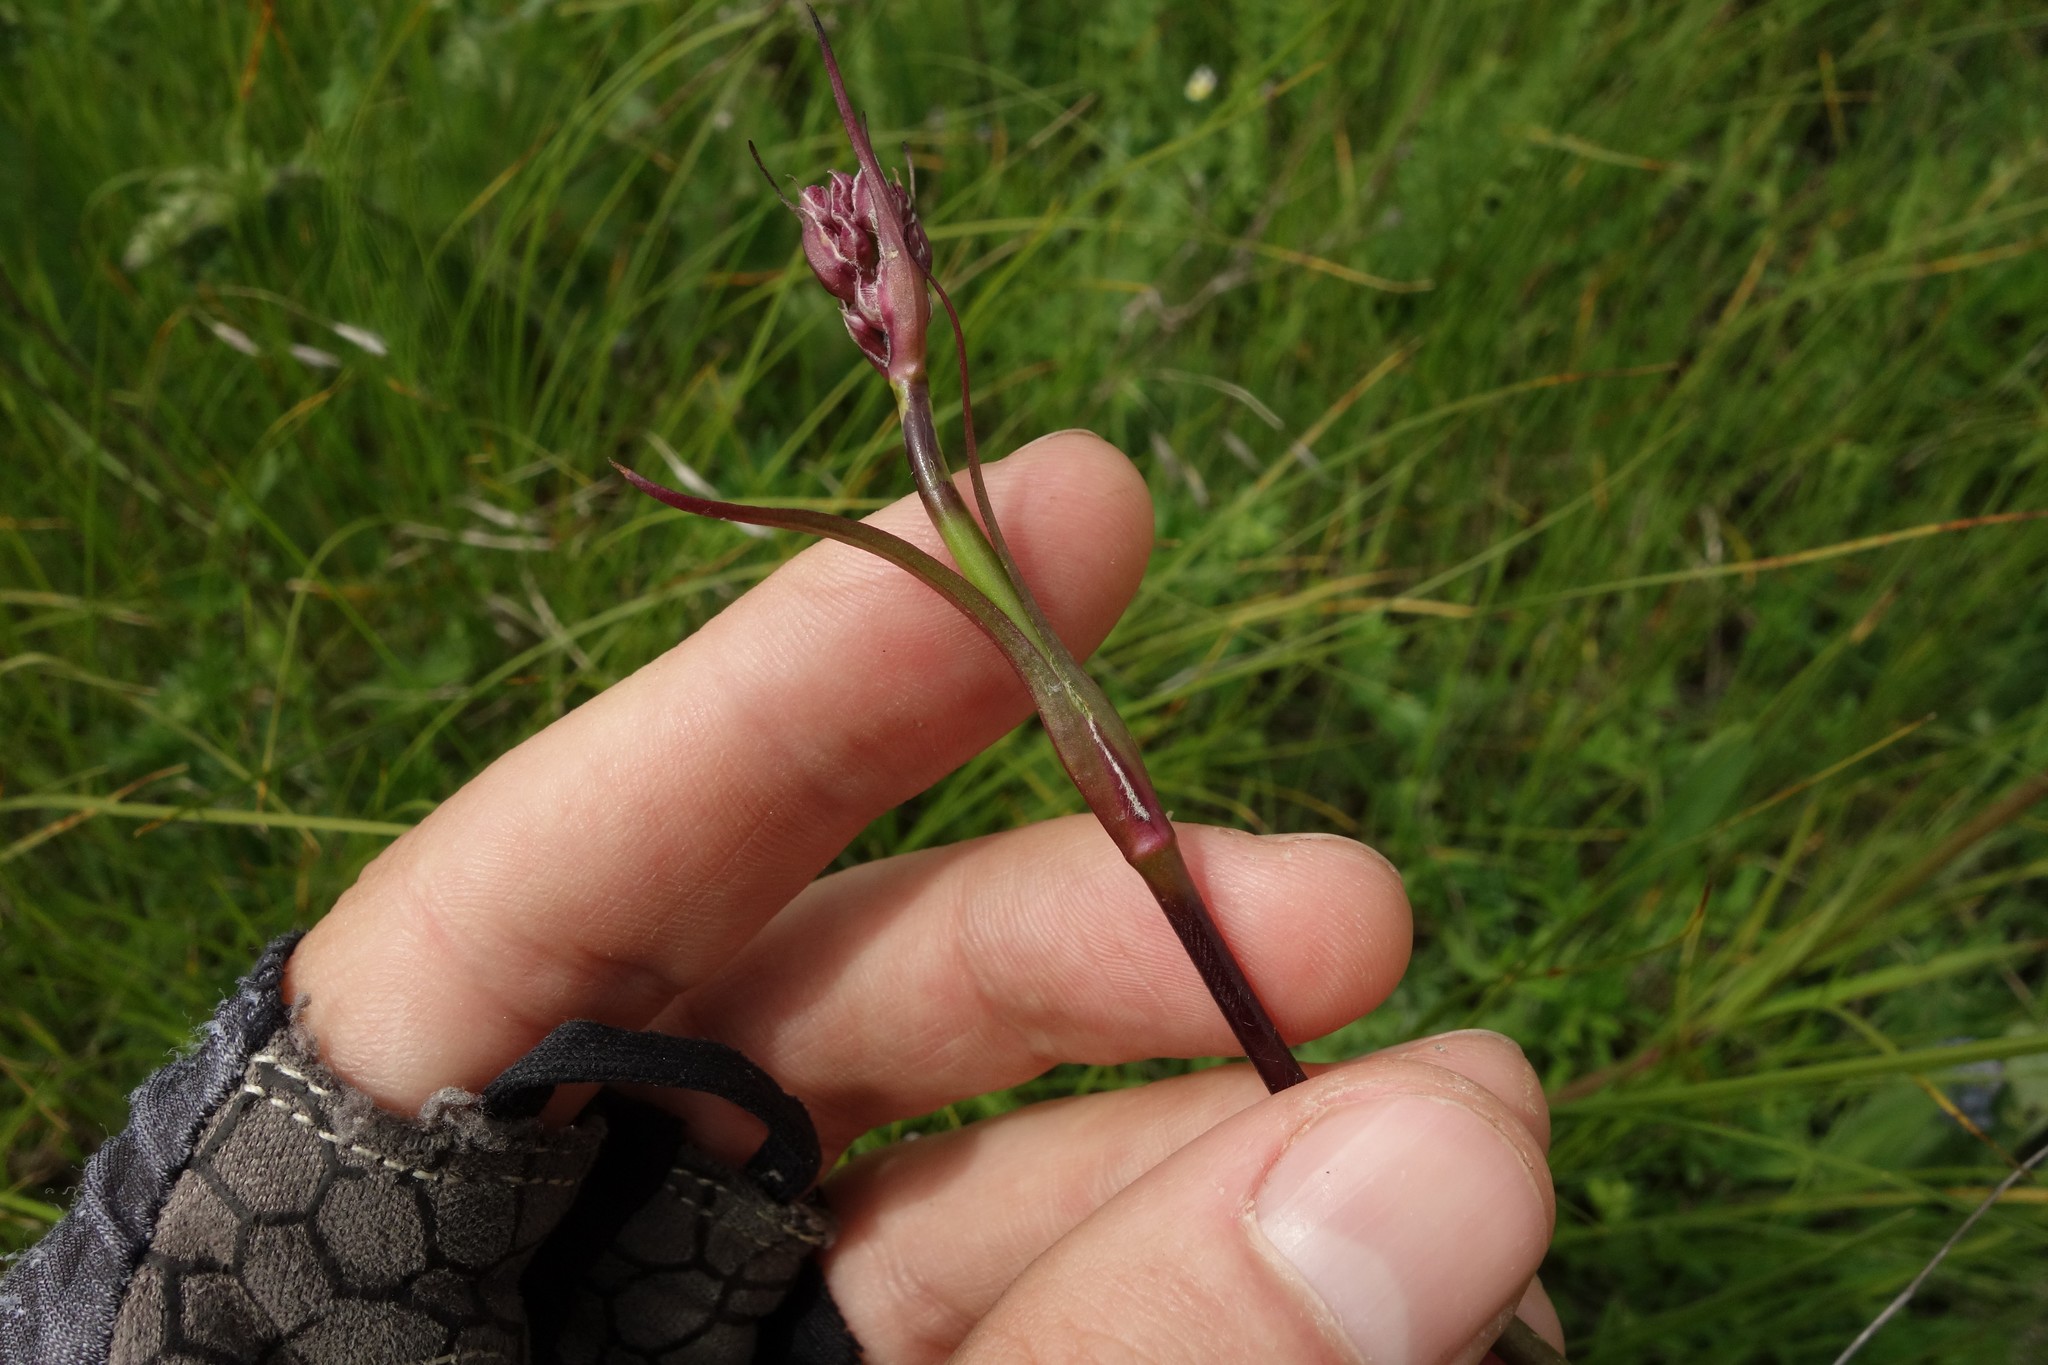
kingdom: Plantae
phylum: Tracheophyta
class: Magnoliopsida
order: Caryophyllales
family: Caryophyllaceae
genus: Viscaria
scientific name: Viscaria vulgaris
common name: Clammy campion
